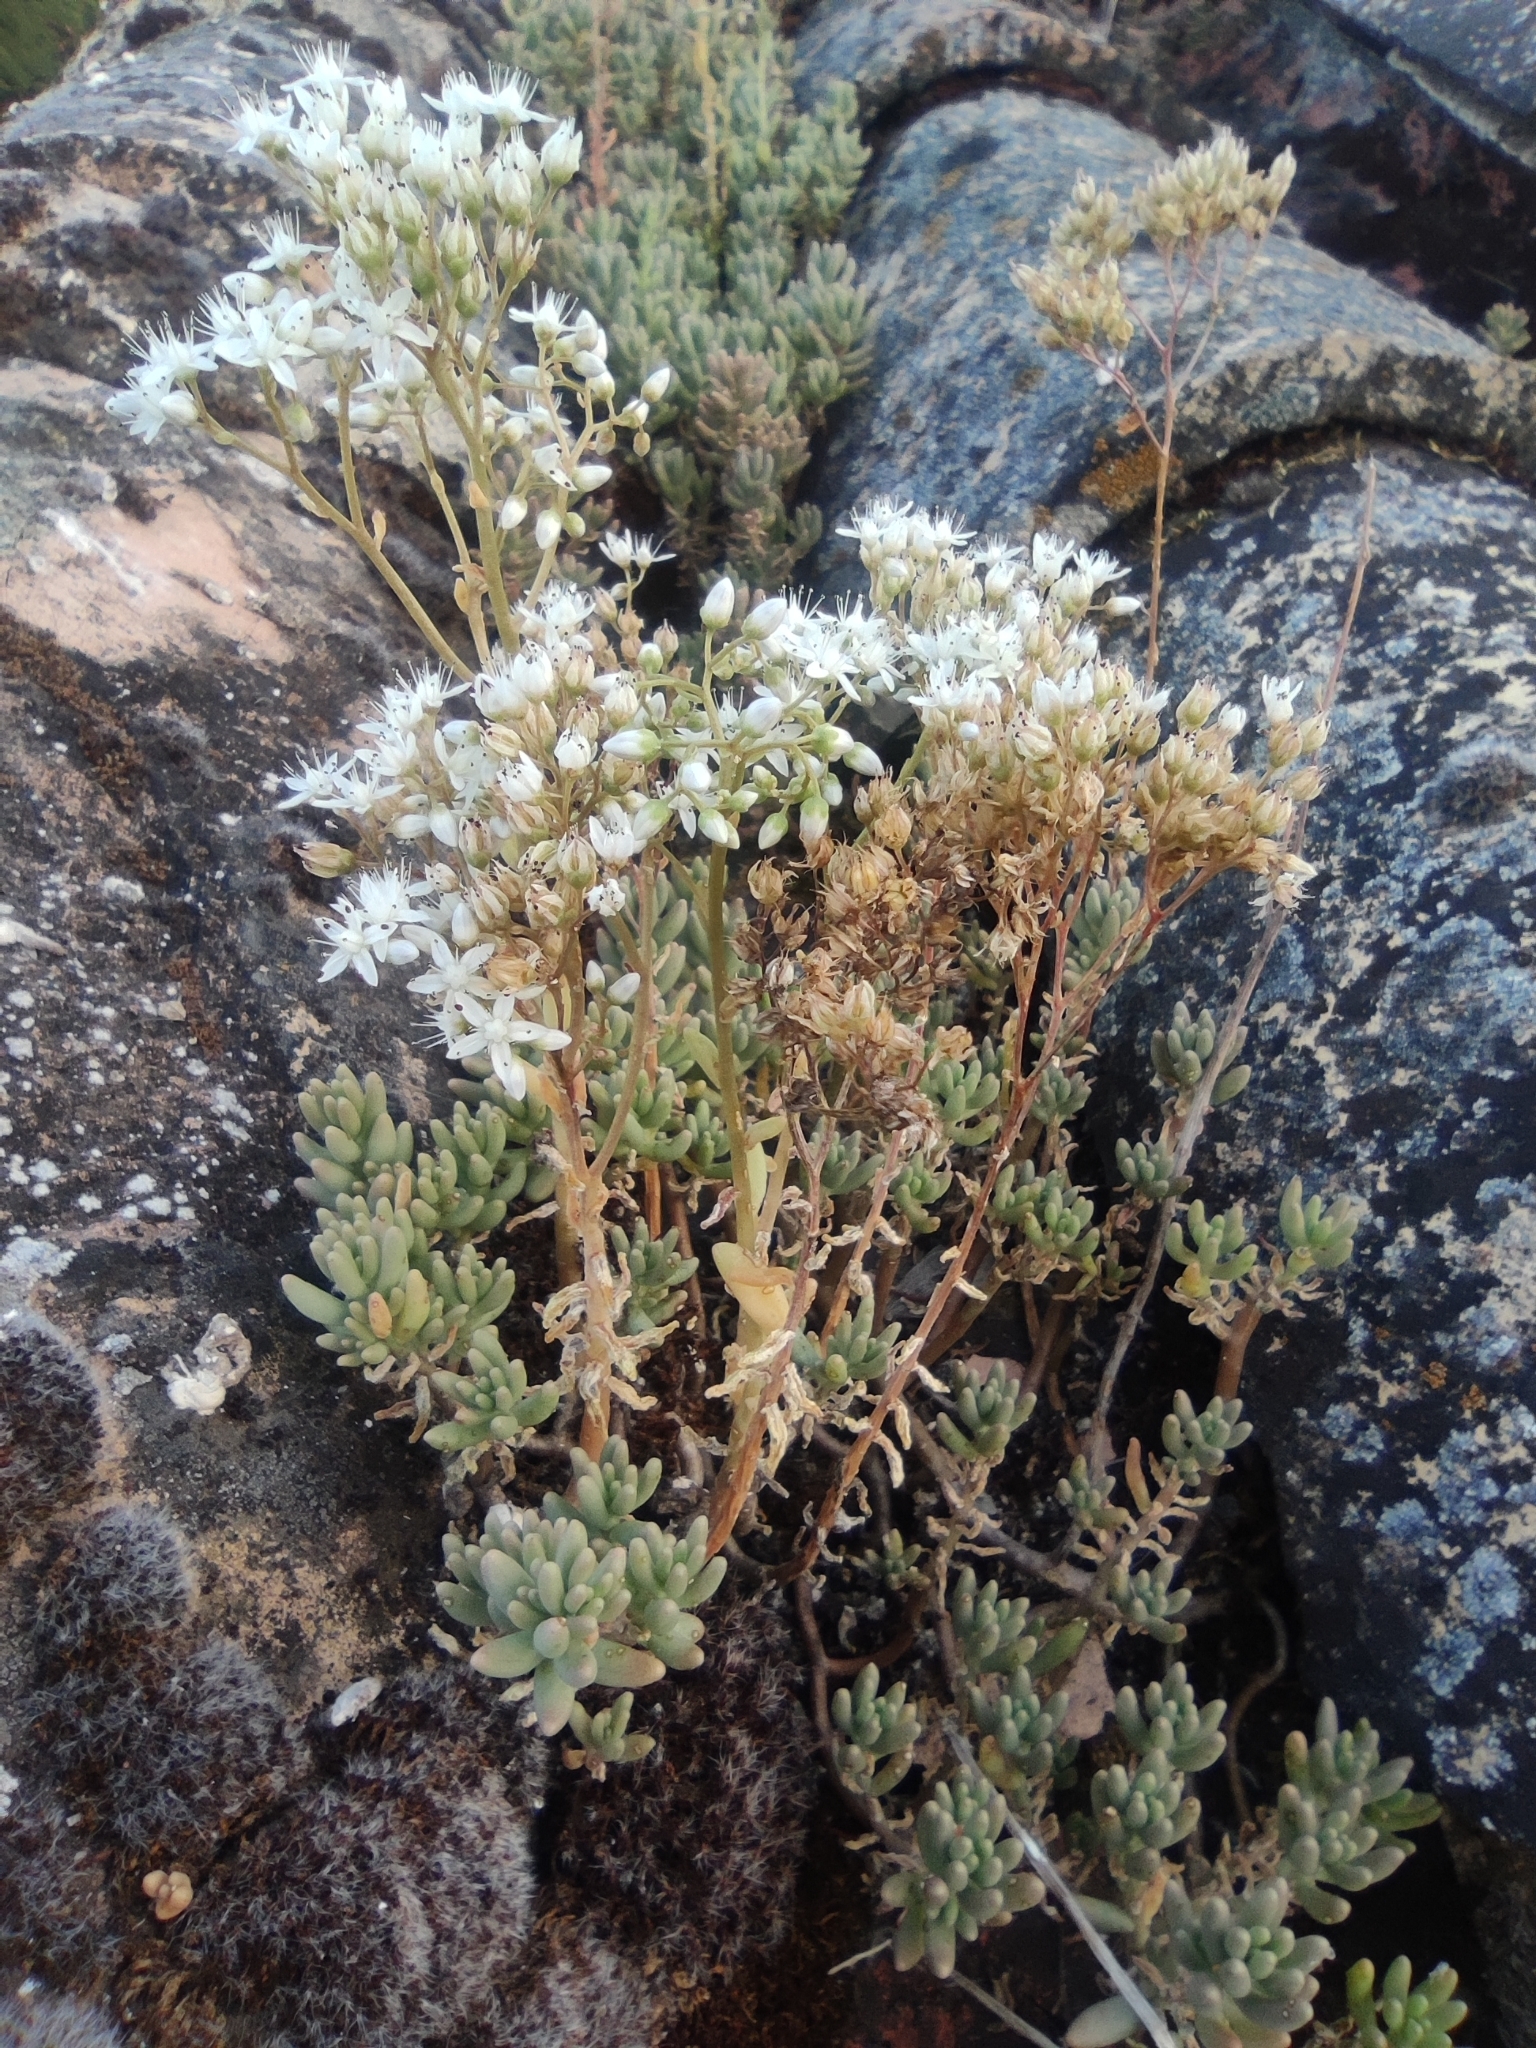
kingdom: Plantae
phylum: Tracheophyta
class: Magnoliopsida
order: Saxifragales
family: Crassulaceae
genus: Sedum
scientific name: Sedum album
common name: White stonecrop
